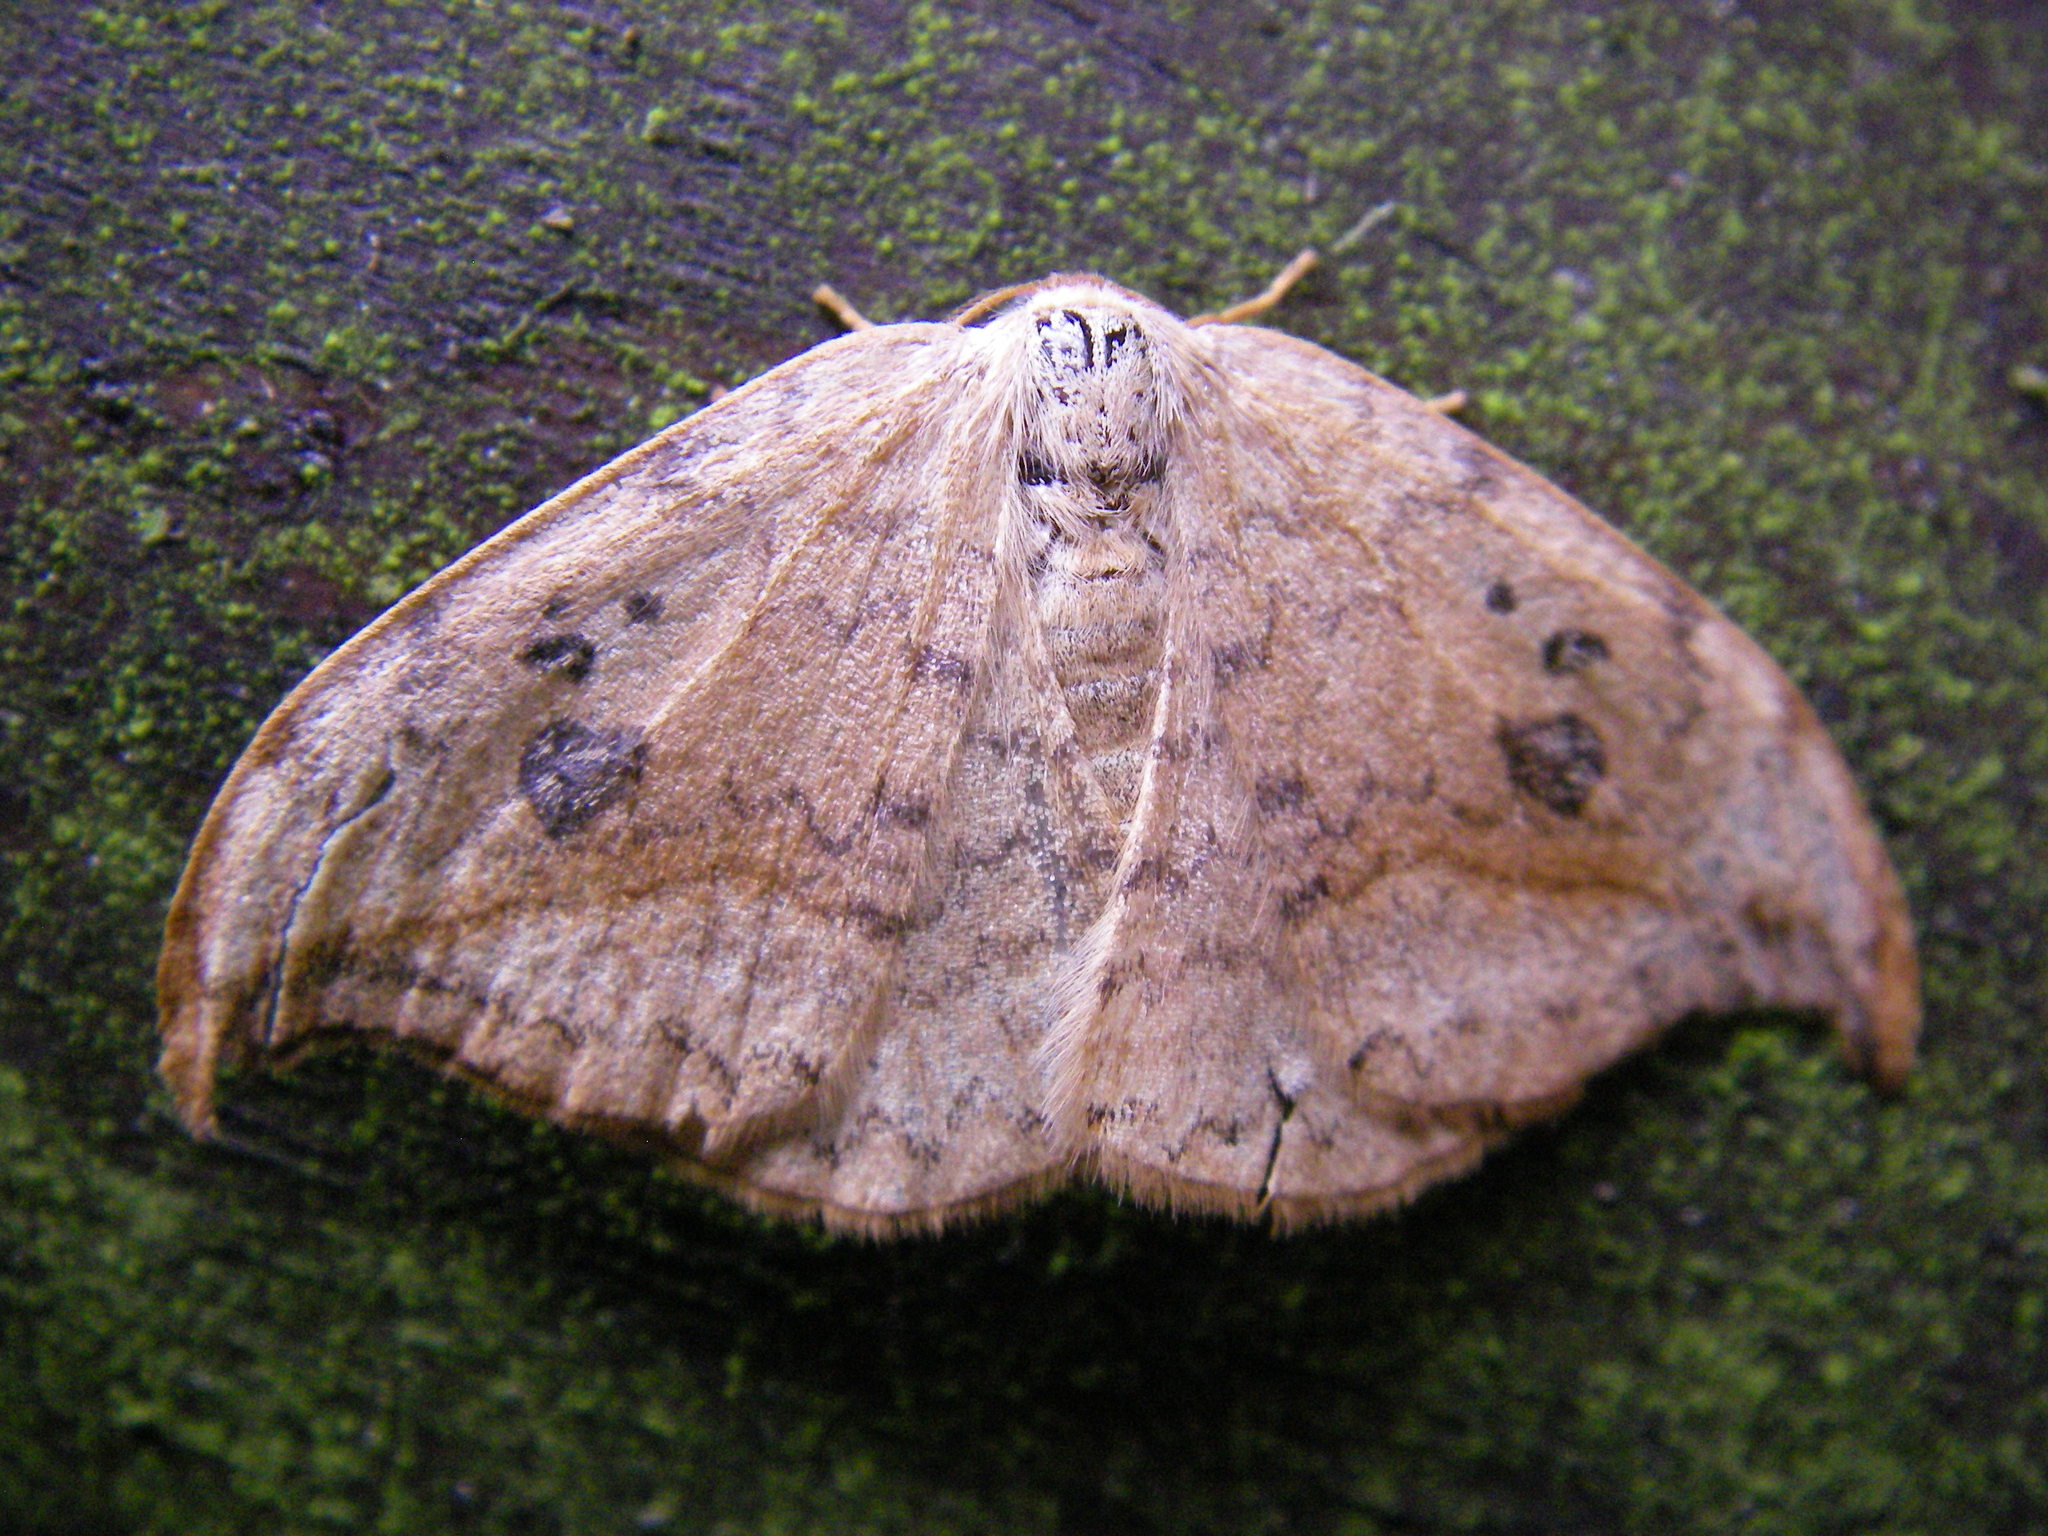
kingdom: Animalia
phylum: Arthropoda
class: Insecta
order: Lepidoptera
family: Drepanidae
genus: Drepana
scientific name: Drepana falcataria
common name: Pebble hook-tip
